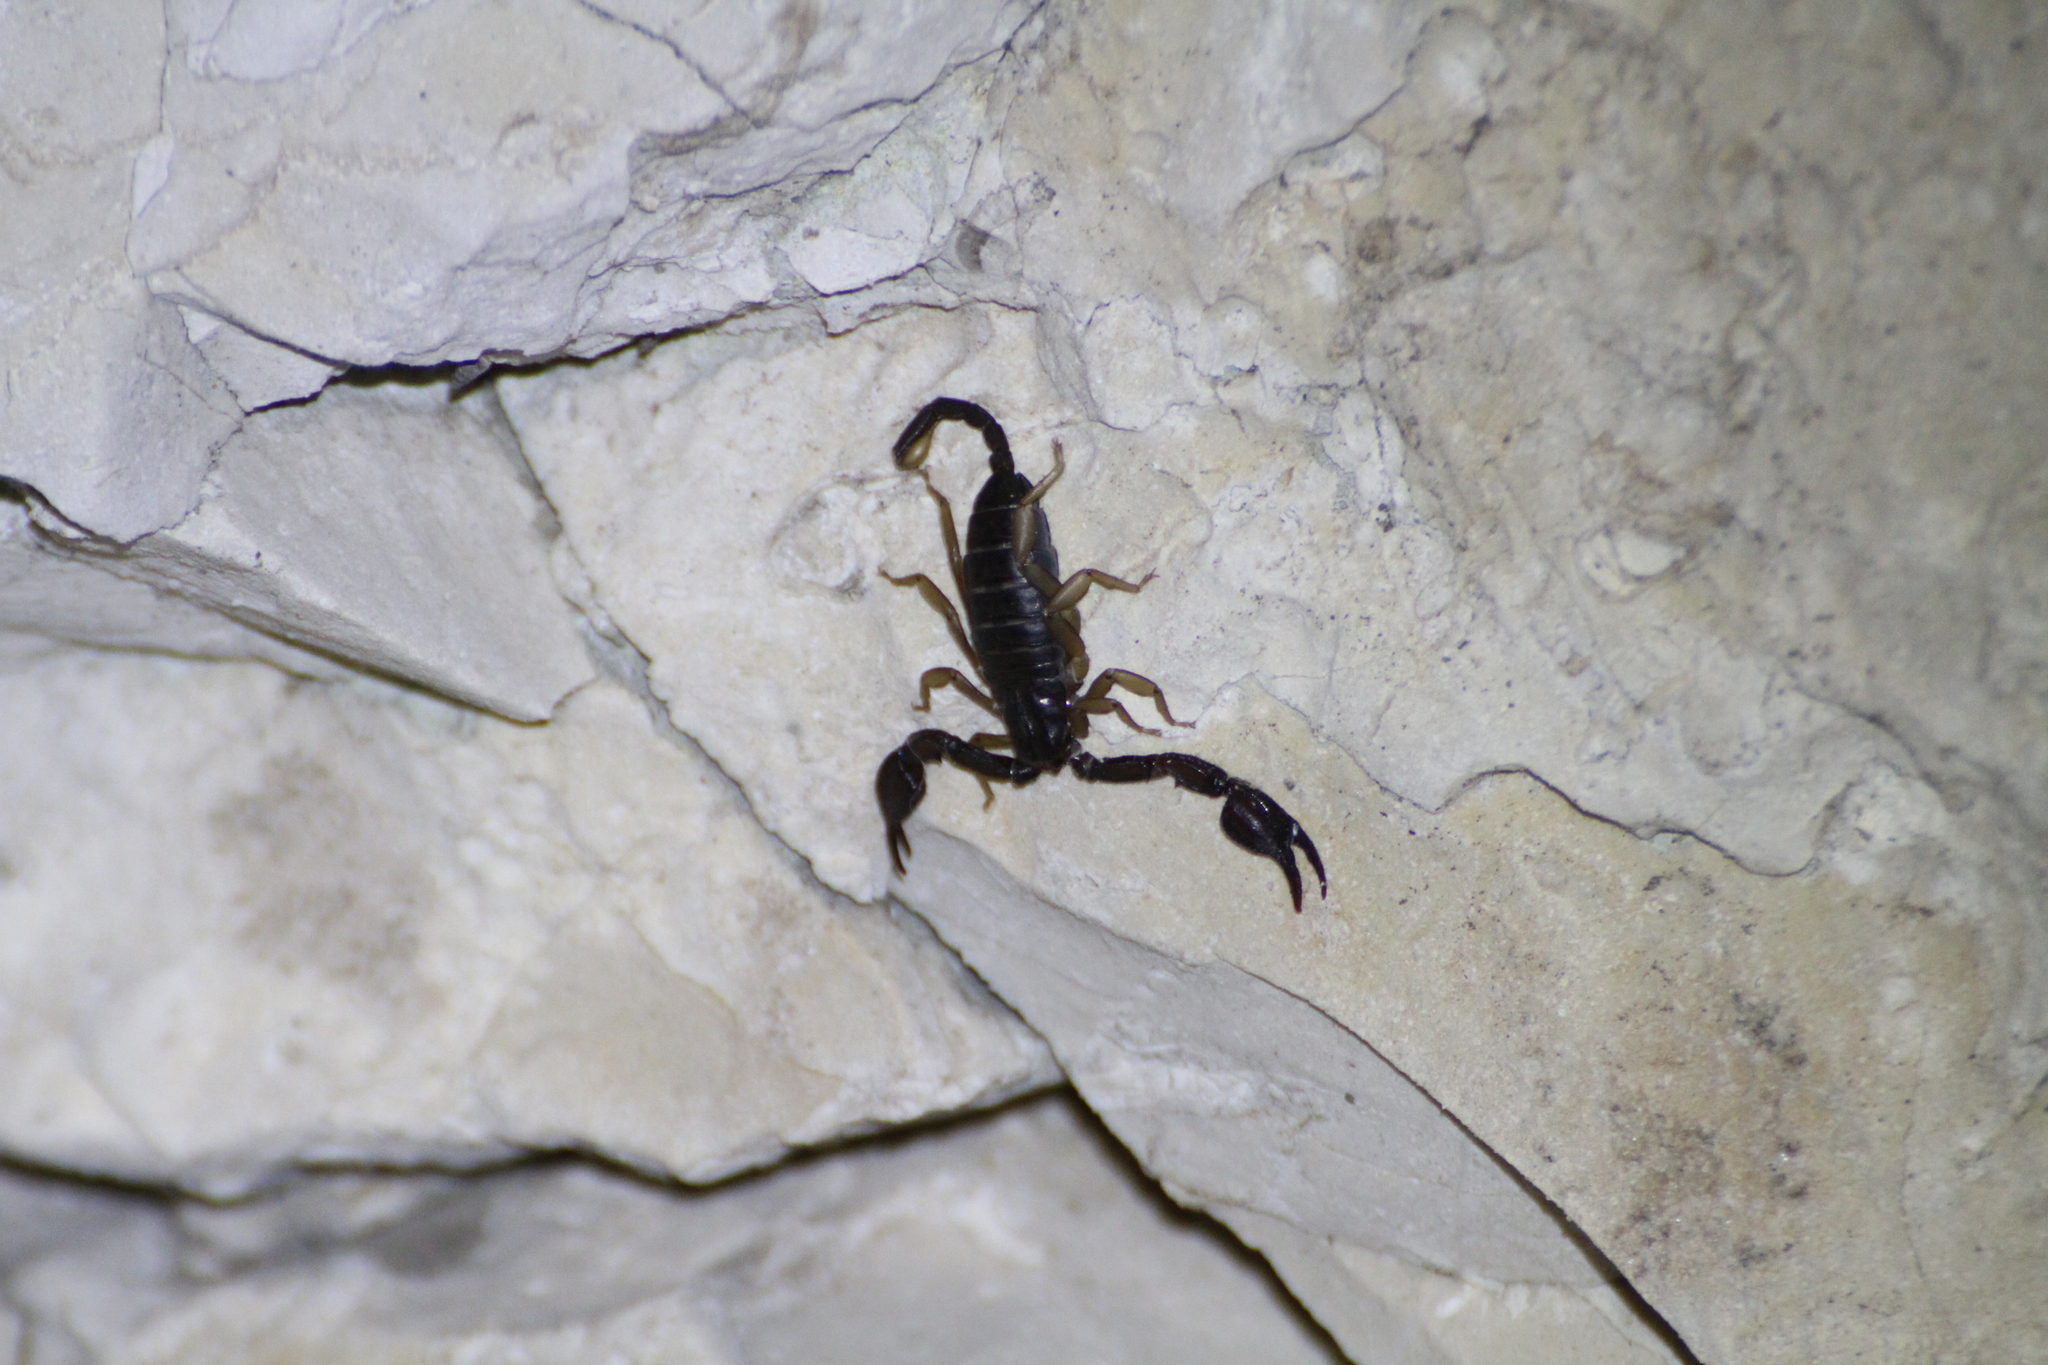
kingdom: Animalia
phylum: Arthropoda
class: Arachnida
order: Scorpiones
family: Euscorpiidae
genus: Euscorpius
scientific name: Euscorpius
